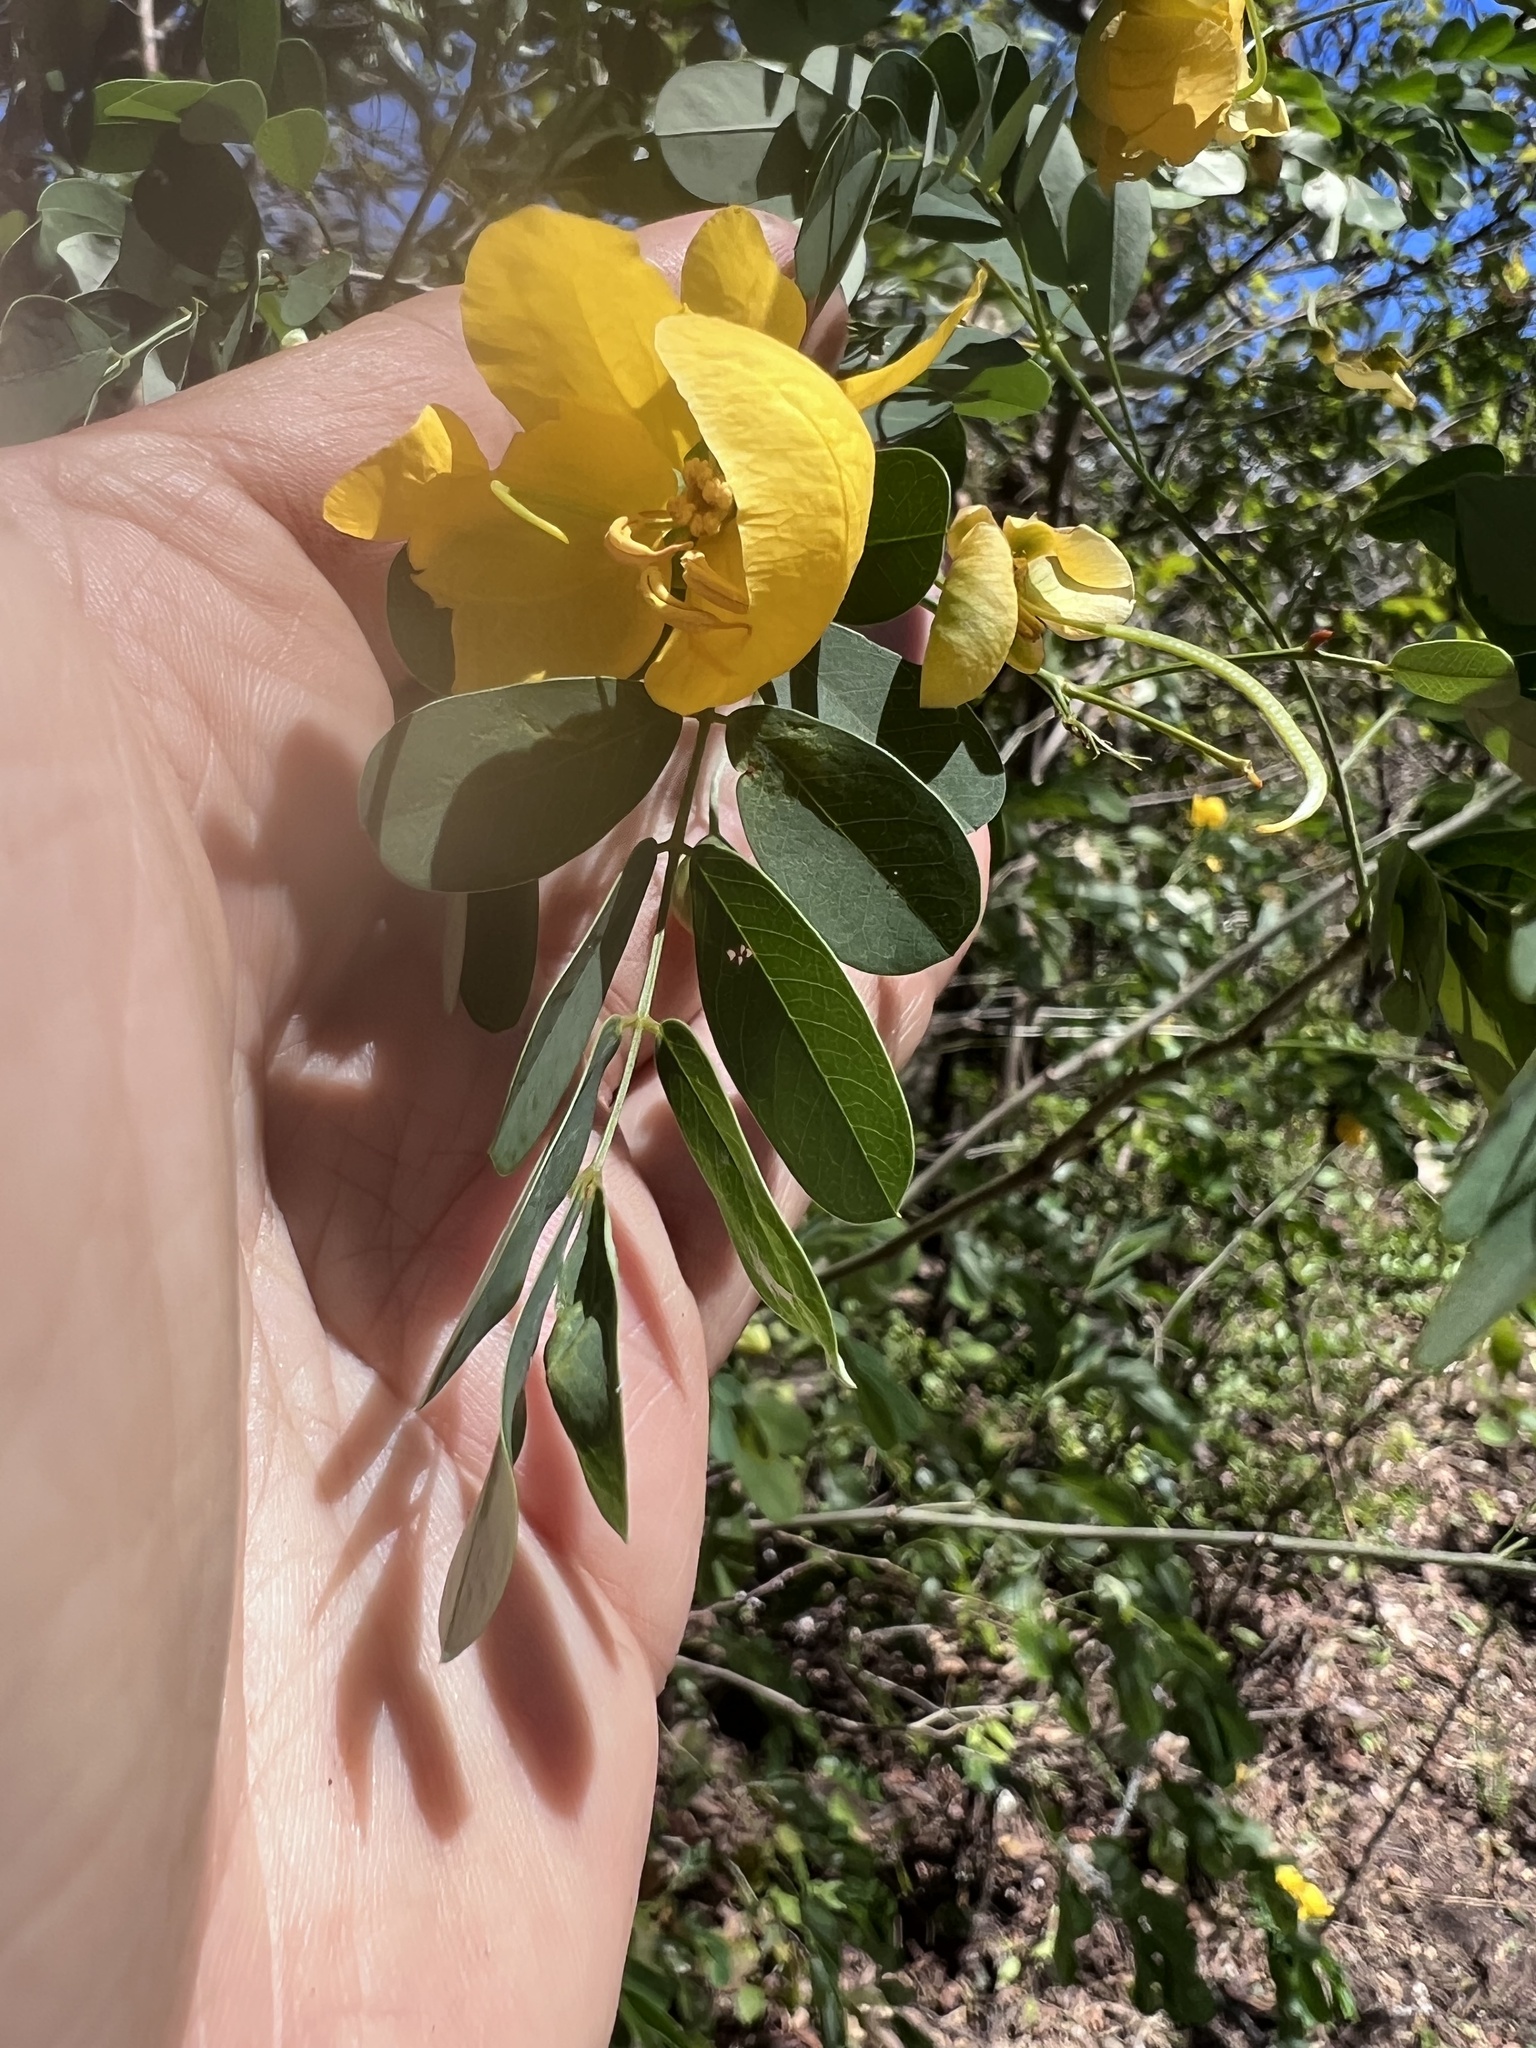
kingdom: Plantae
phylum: Tracheophyta
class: Magnoliopsida
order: Fabales
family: Fabaceae
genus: Senna
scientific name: Senna pallida
